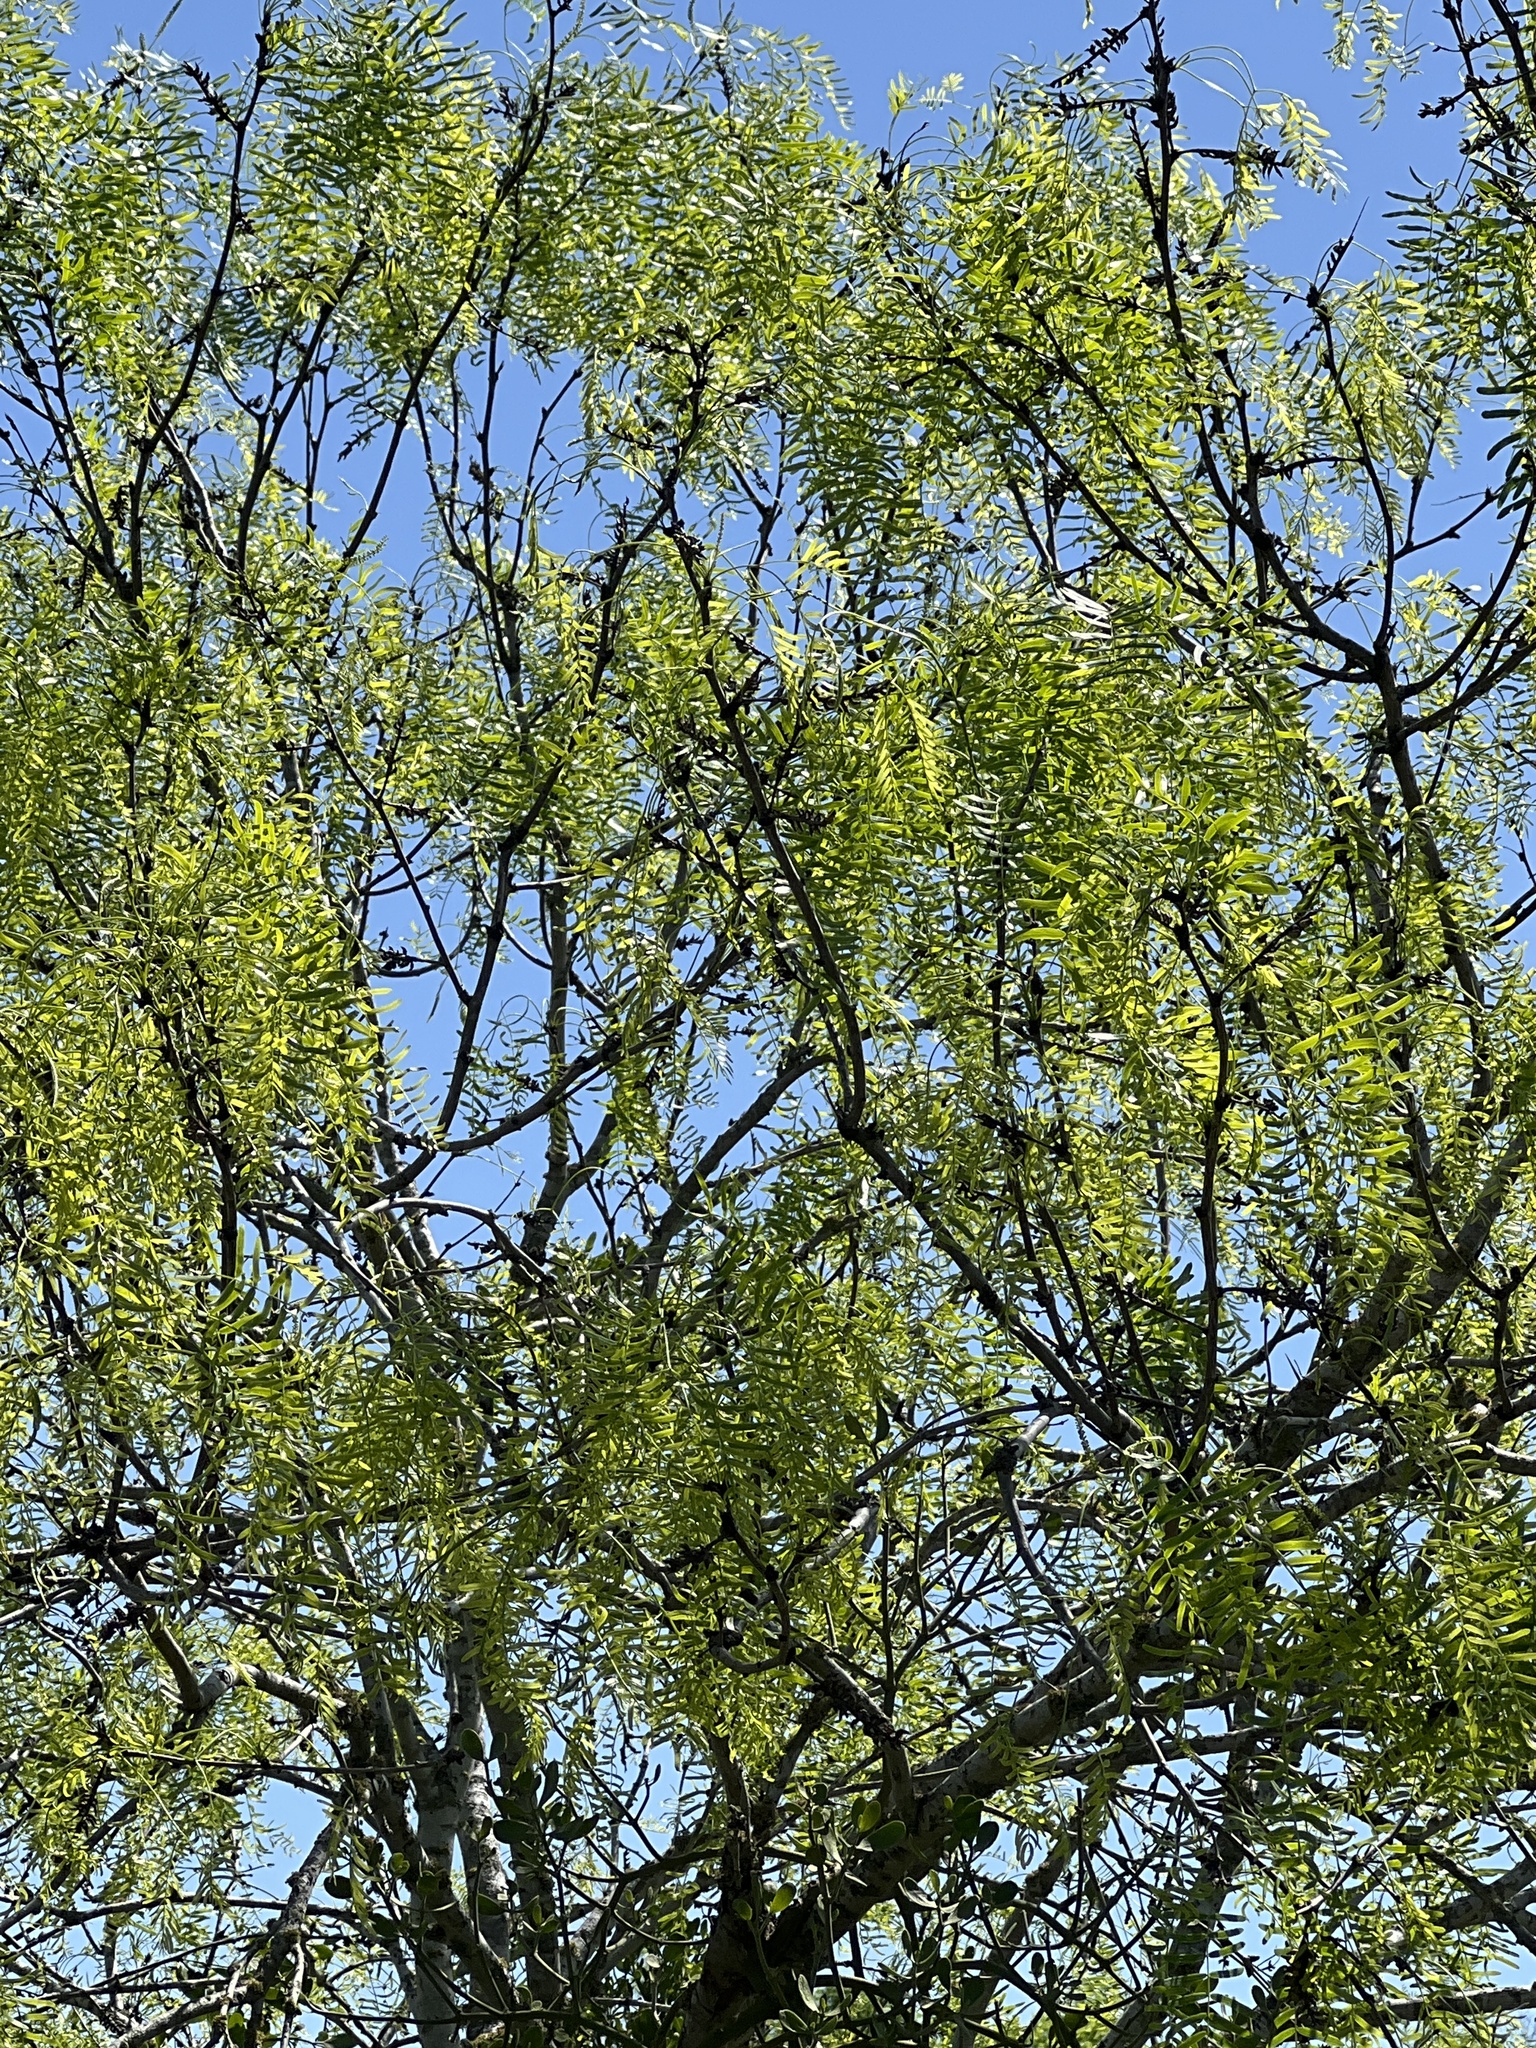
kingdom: Plantae
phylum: Tracheophyta
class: Magnoliopsida
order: Fabales
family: Fabaceae
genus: Prosopis
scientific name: Prosopis glandulosa
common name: Honey mesquite
